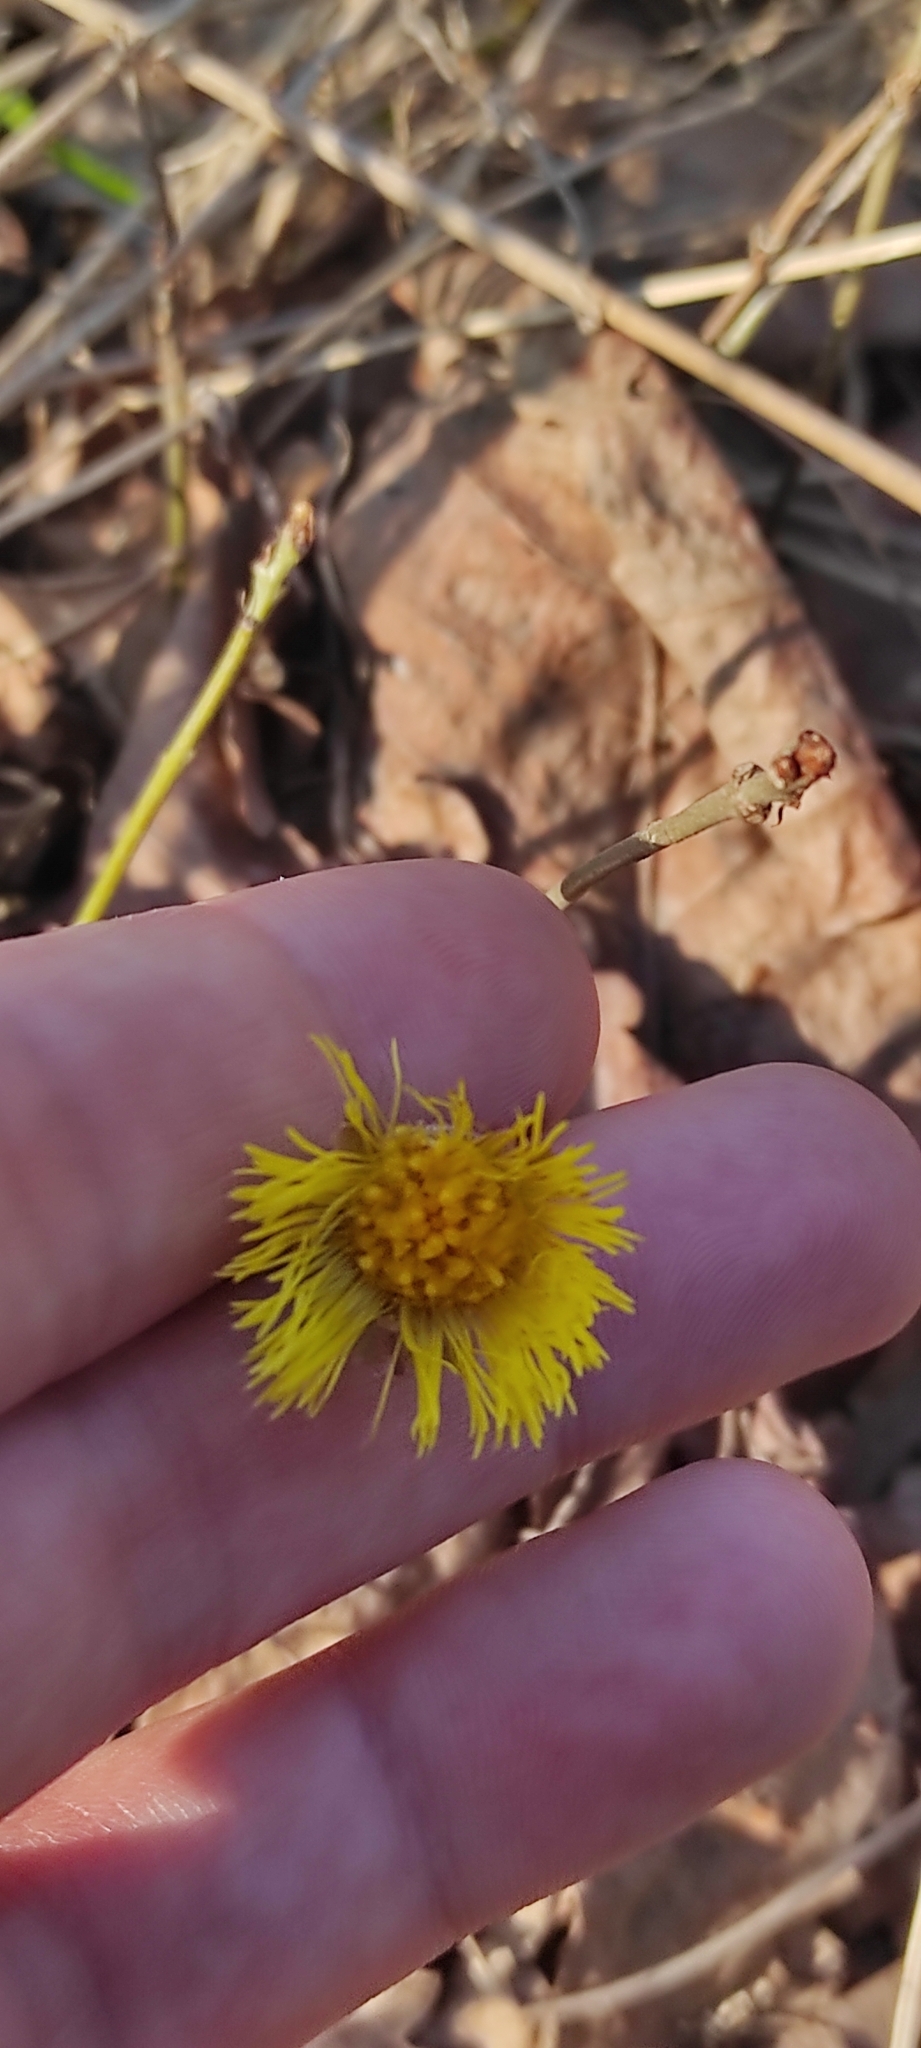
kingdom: Plantae
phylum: Tracheophyta
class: Magnoliopsida
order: Asterales
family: Asteraceae
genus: Tussilago
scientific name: Tussilago farfara
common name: Coltsfoot
